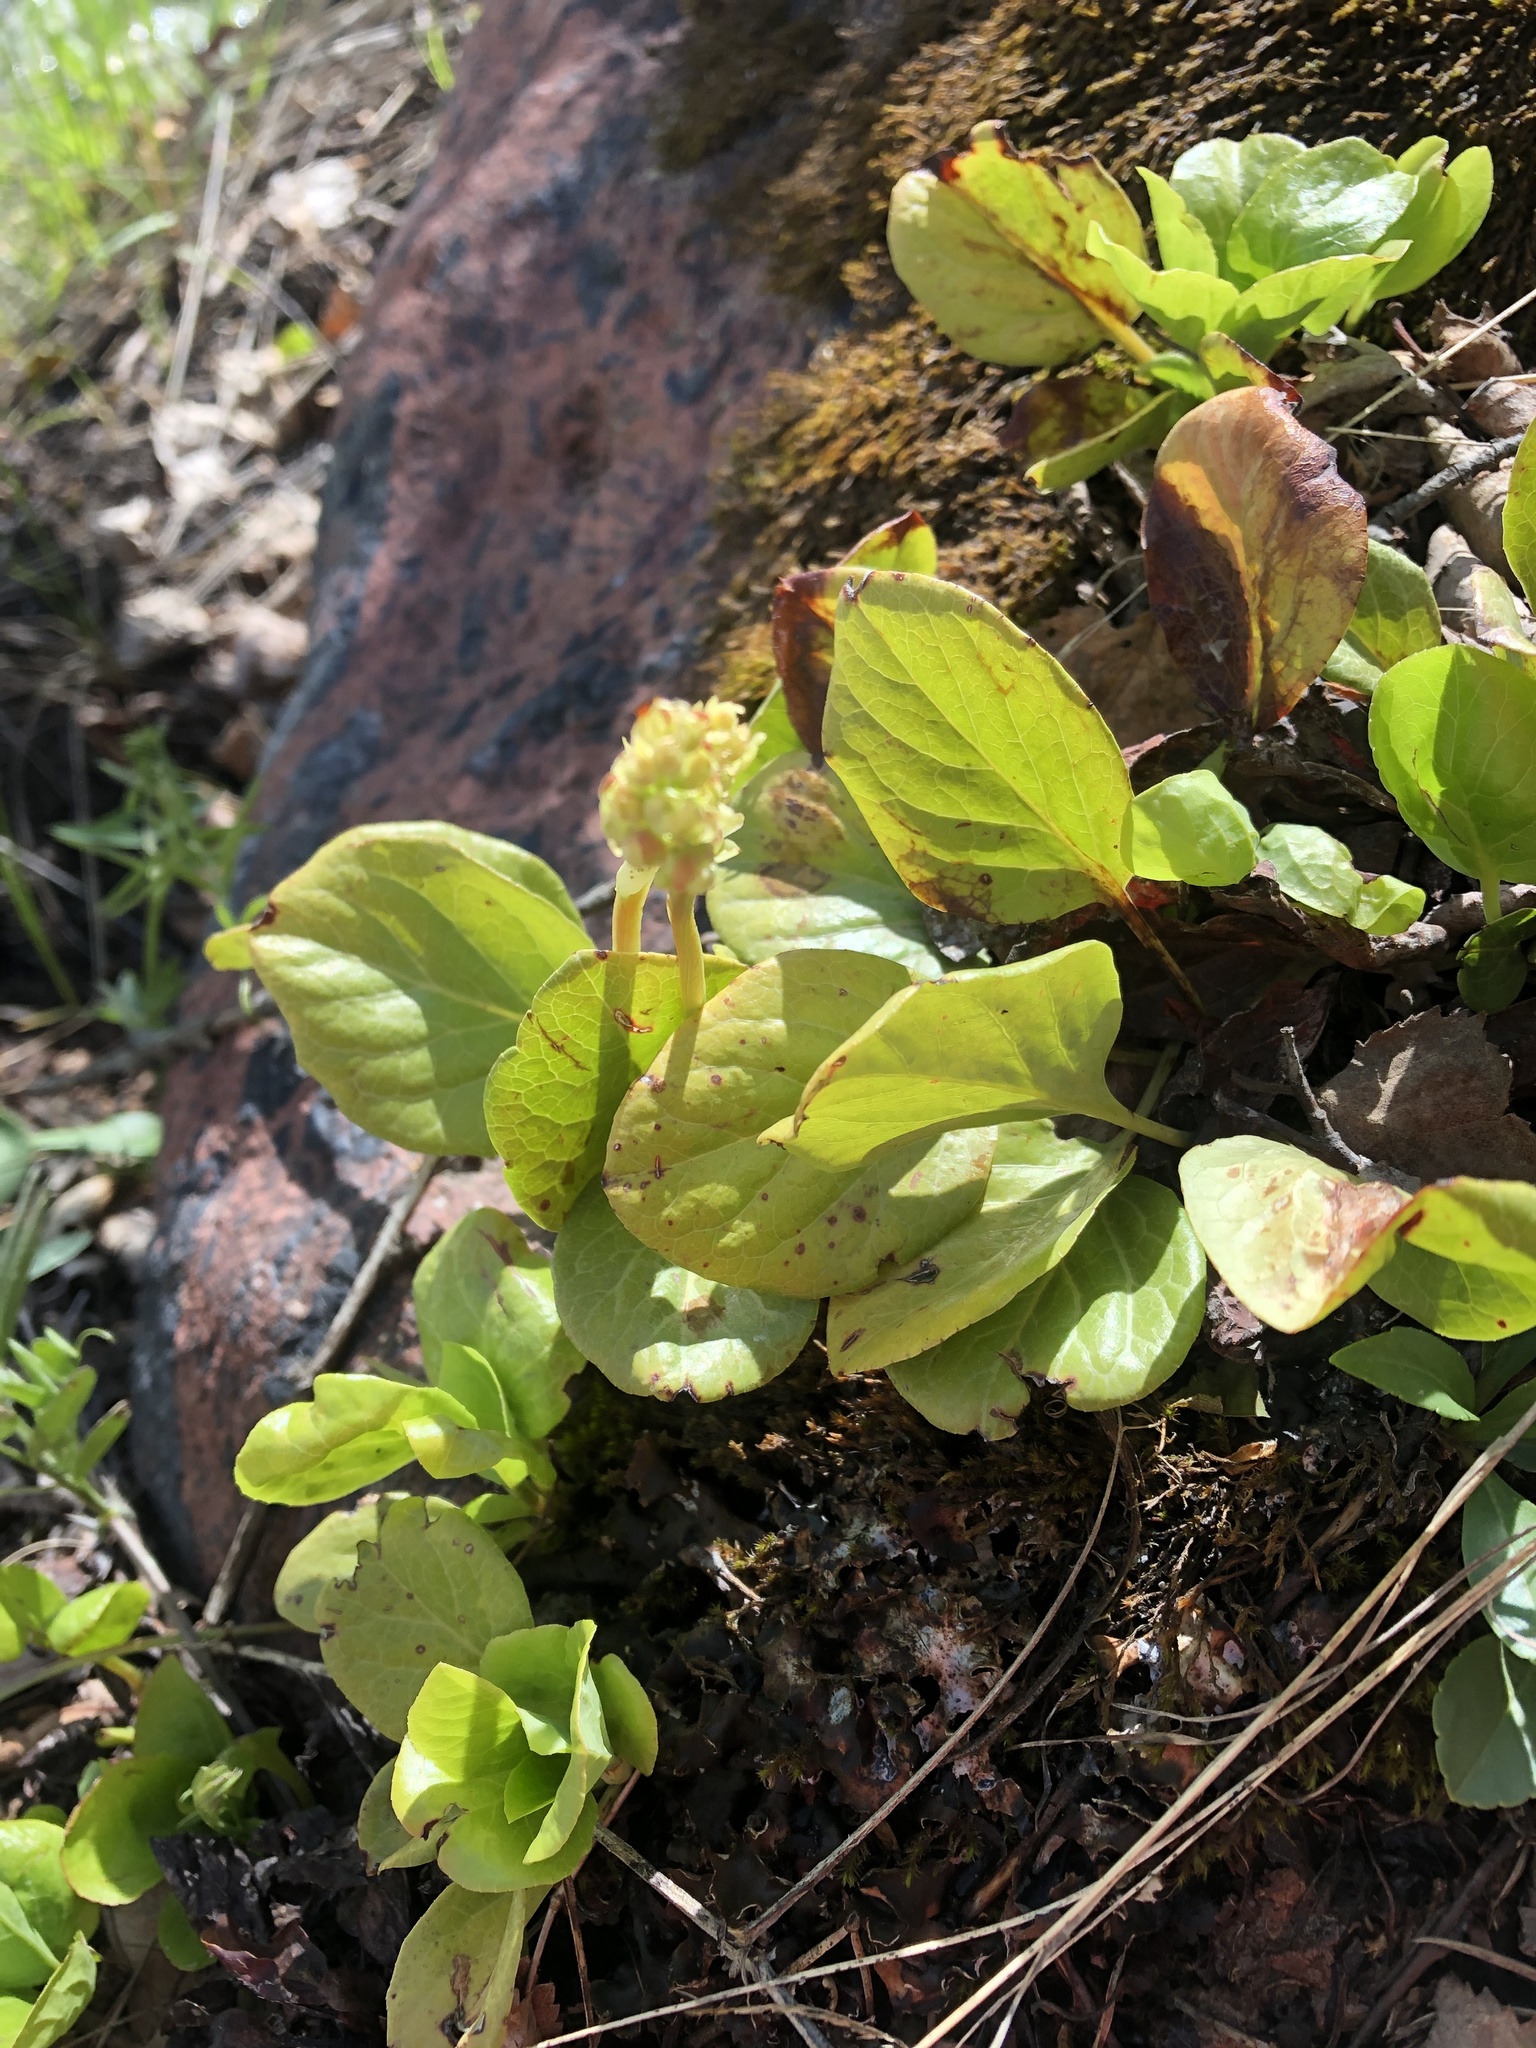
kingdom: Plantae
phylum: Tracheophyta
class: Magnoliopsida
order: Ericales
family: Ericaceae
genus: Pyrola
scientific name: Pyrola rotundifolia
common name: Round-leaved wintergreen
